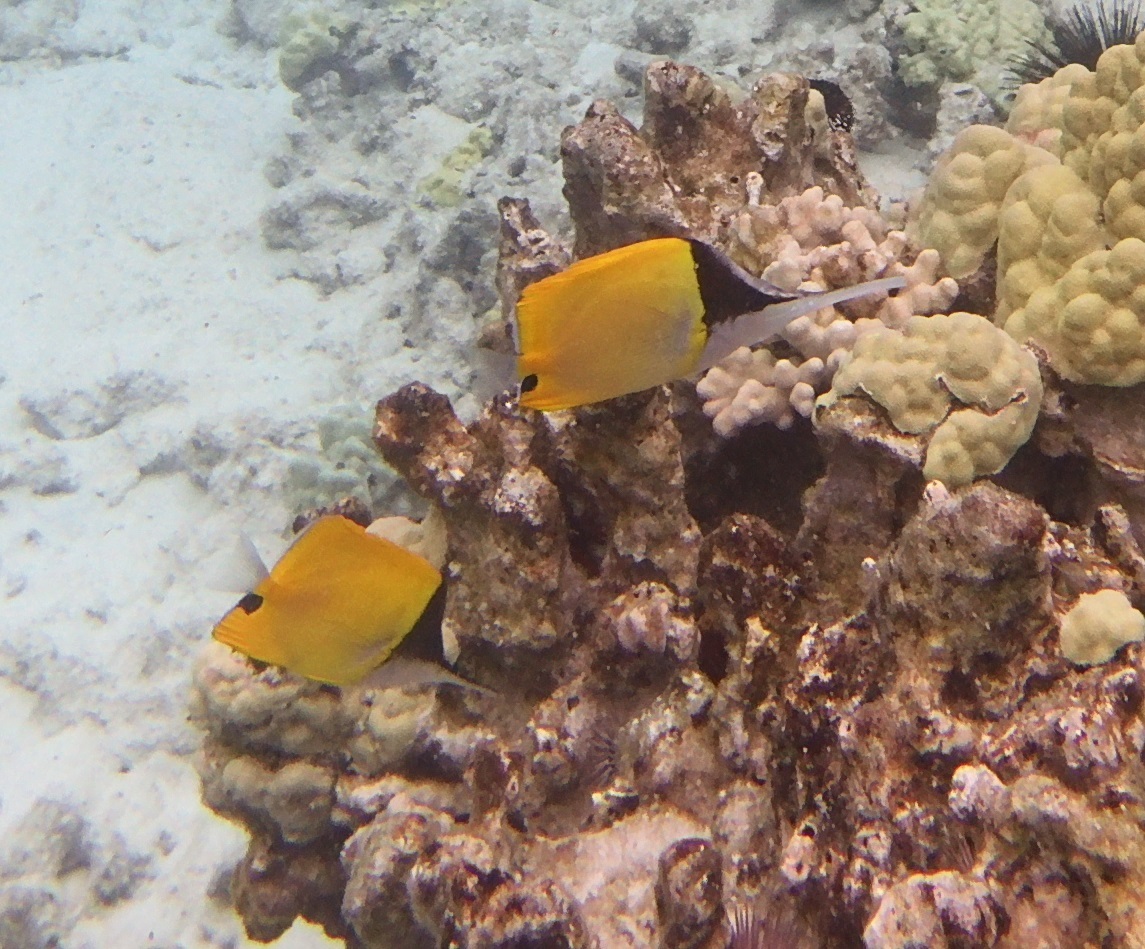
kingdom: Animalia
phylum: Chordata
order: Perciformes
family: Chaetodontidae
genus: Forcipiger
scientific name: Forcipiger longirostris
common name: Longnose butterflyfish
